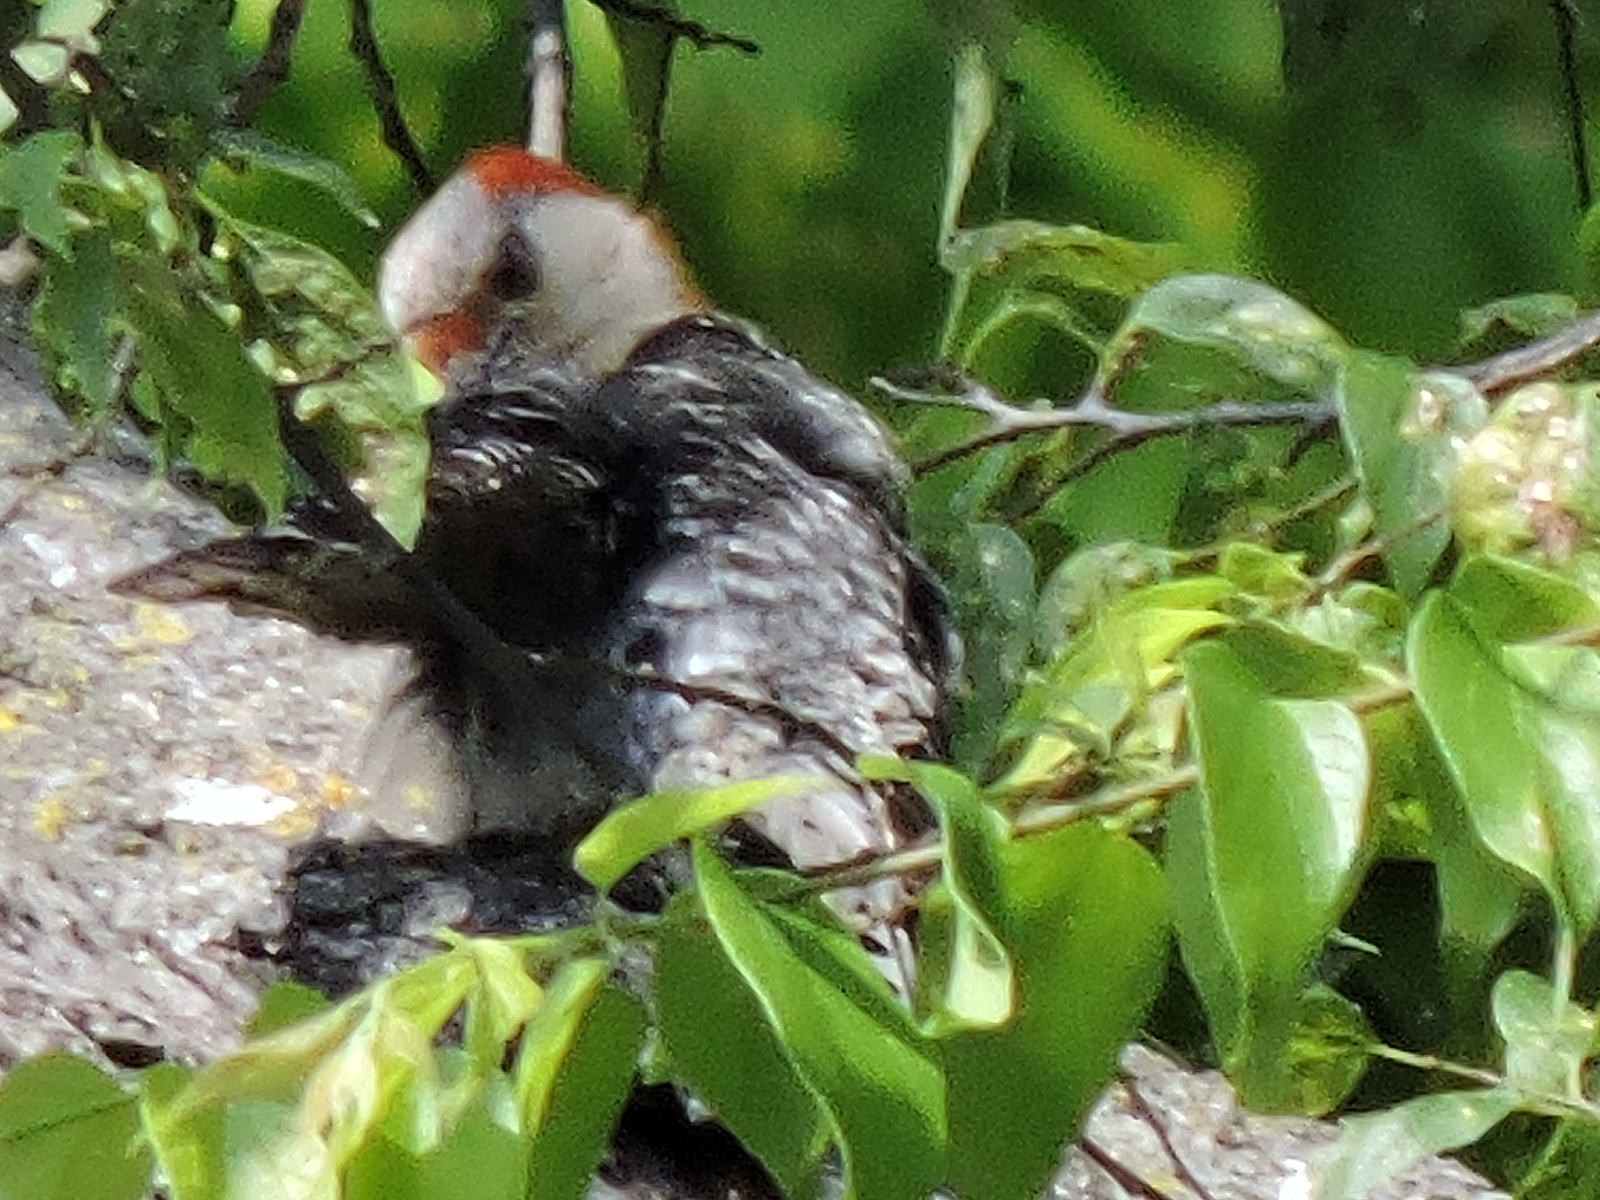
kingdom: Animalia
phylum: Chordata
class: Aves
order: Piciformes
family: Picidae
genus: Melanerpes
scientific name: Melanerpes carolinus
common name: Red-bellied woodpecker
